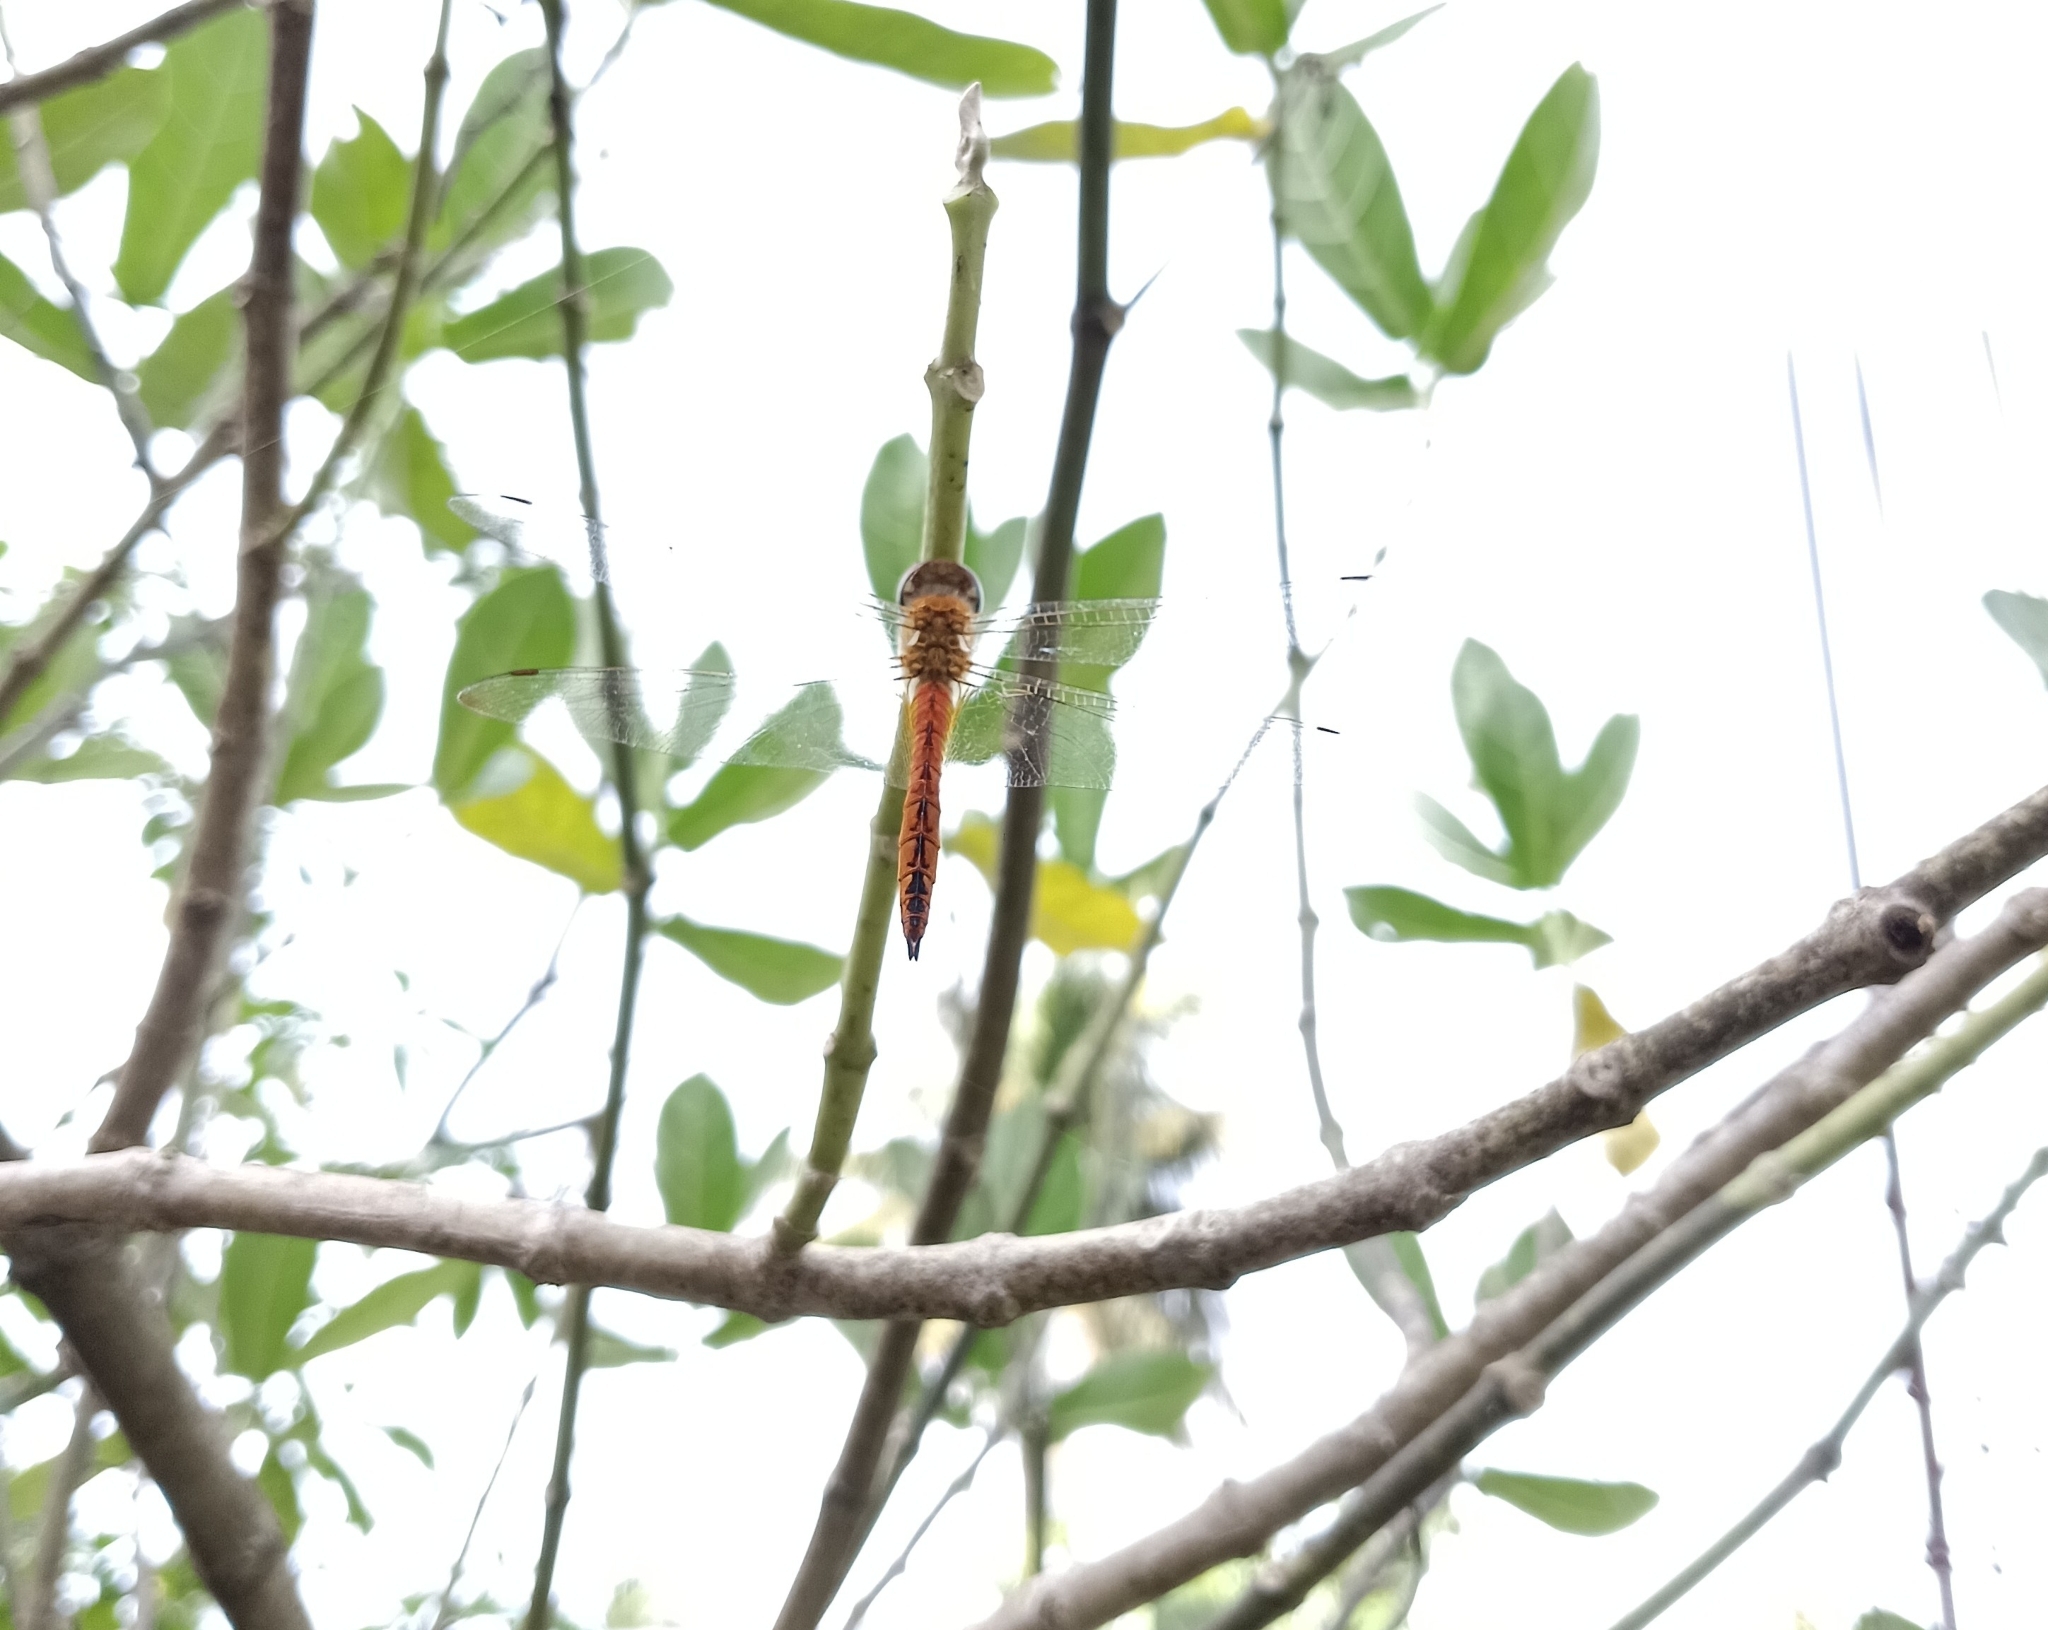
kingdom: Animalia
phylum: Arthropoda
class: Insecta
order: Odonata
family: Libellulidae
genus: Pantala
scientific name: Pantala flavescens
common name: Wandering glider
